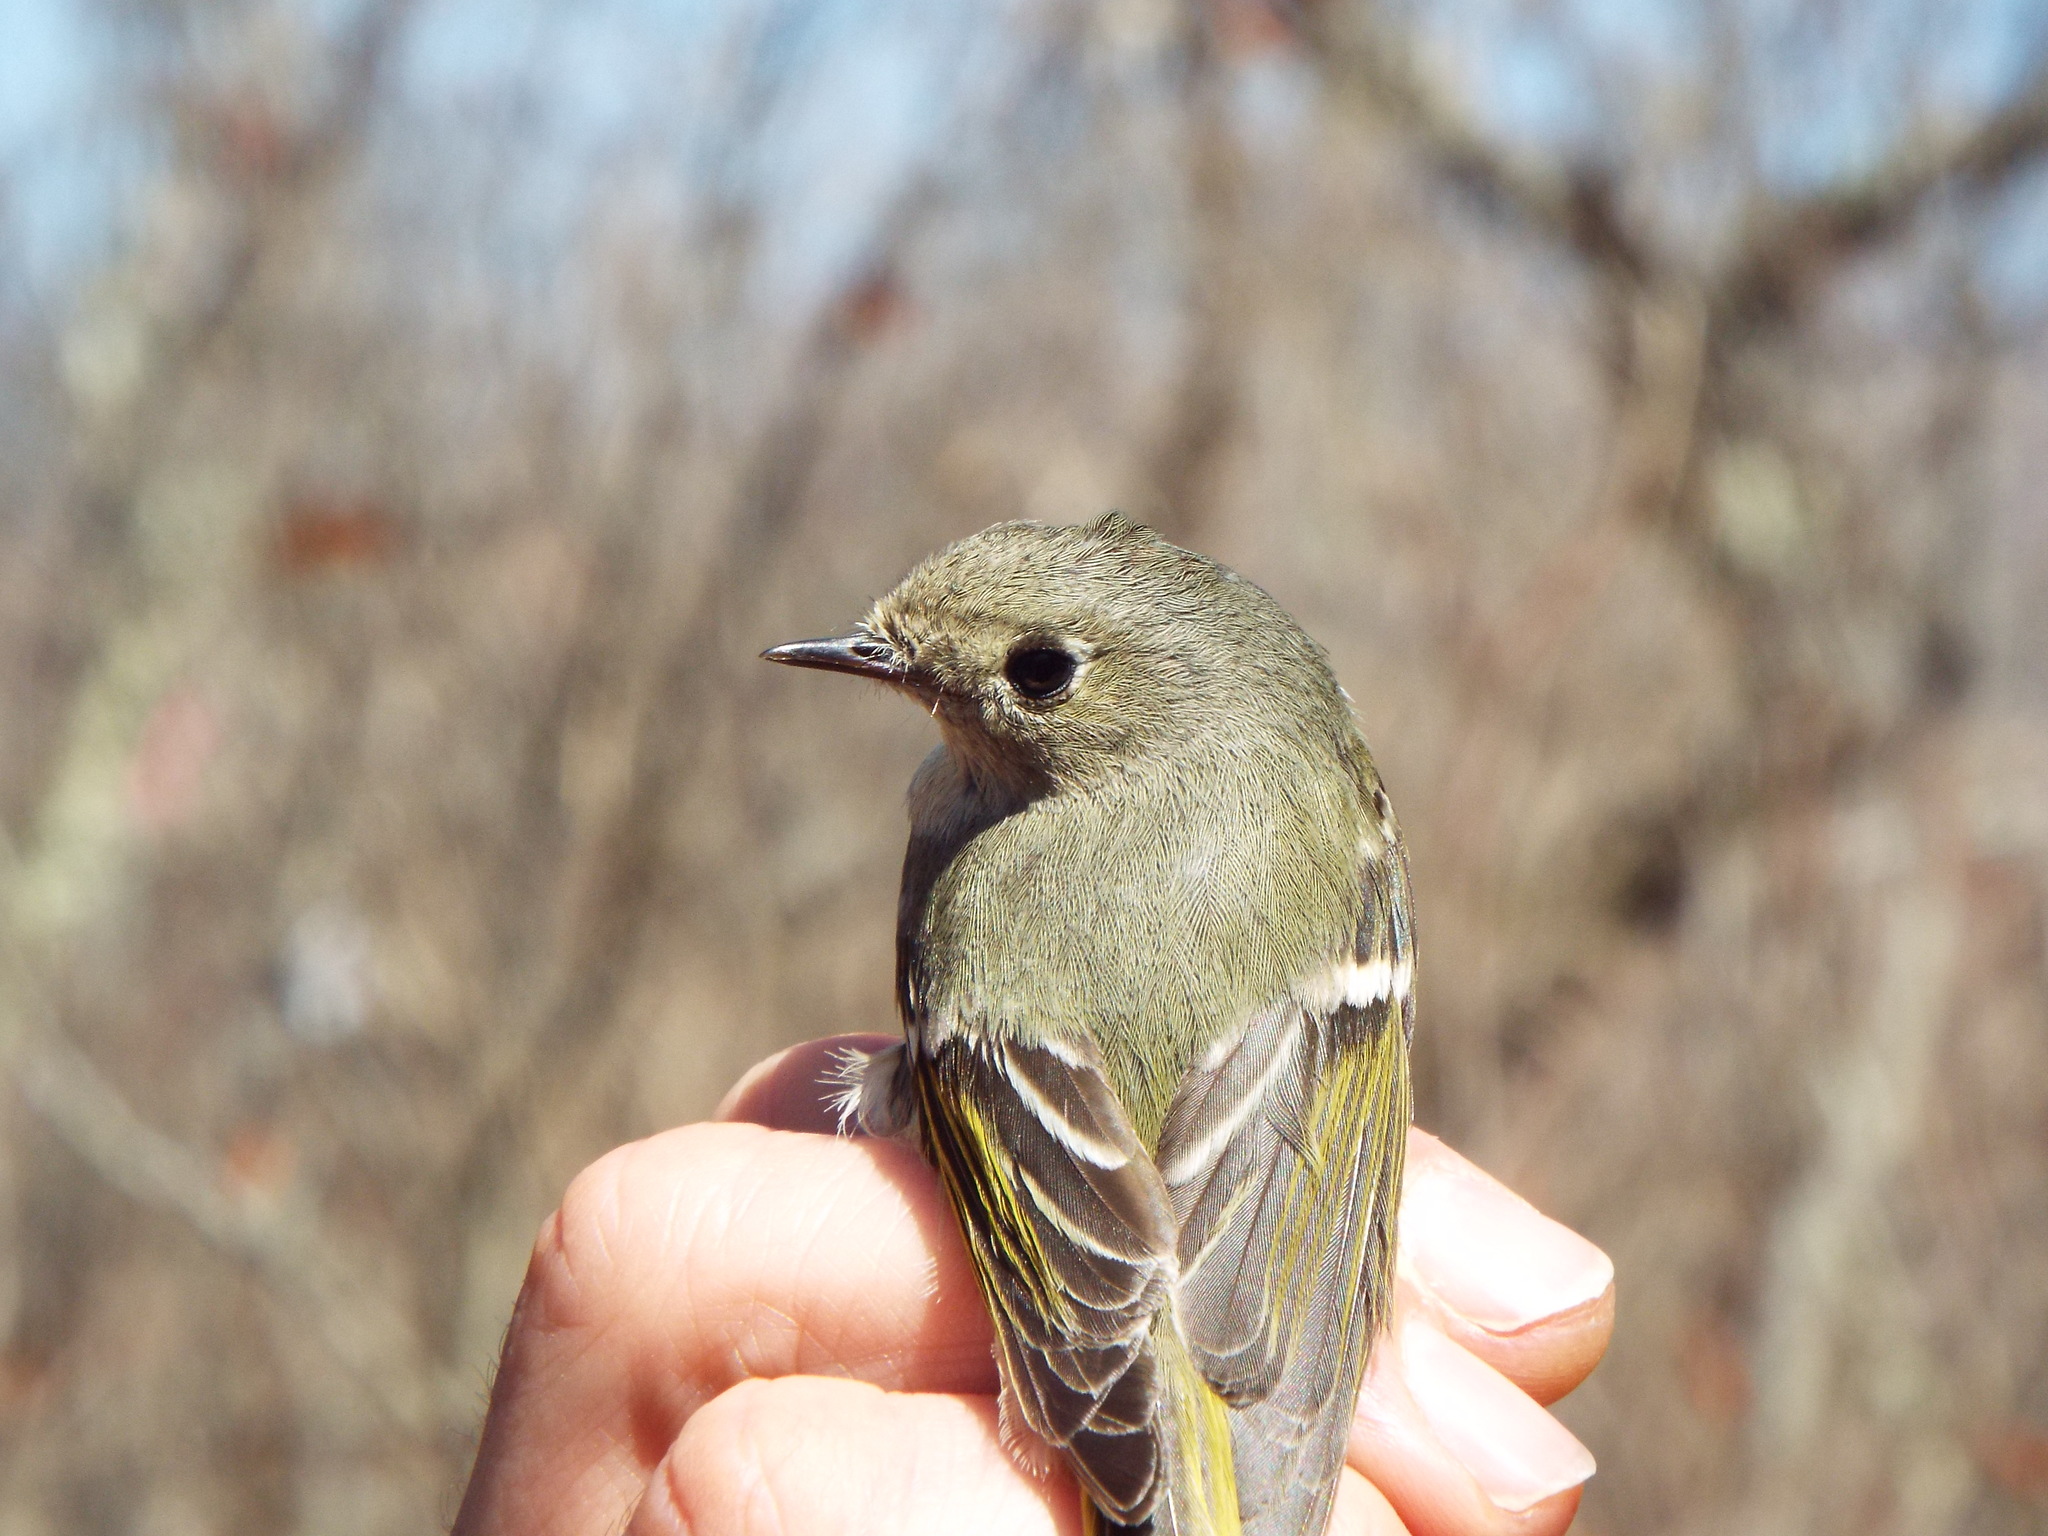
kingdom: Animalia
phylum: Chordata
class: Aves
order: Passeriformes
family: Regulidae
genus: Regulus
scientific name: Regulus calendula
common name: Ruby-crowned kinglet
